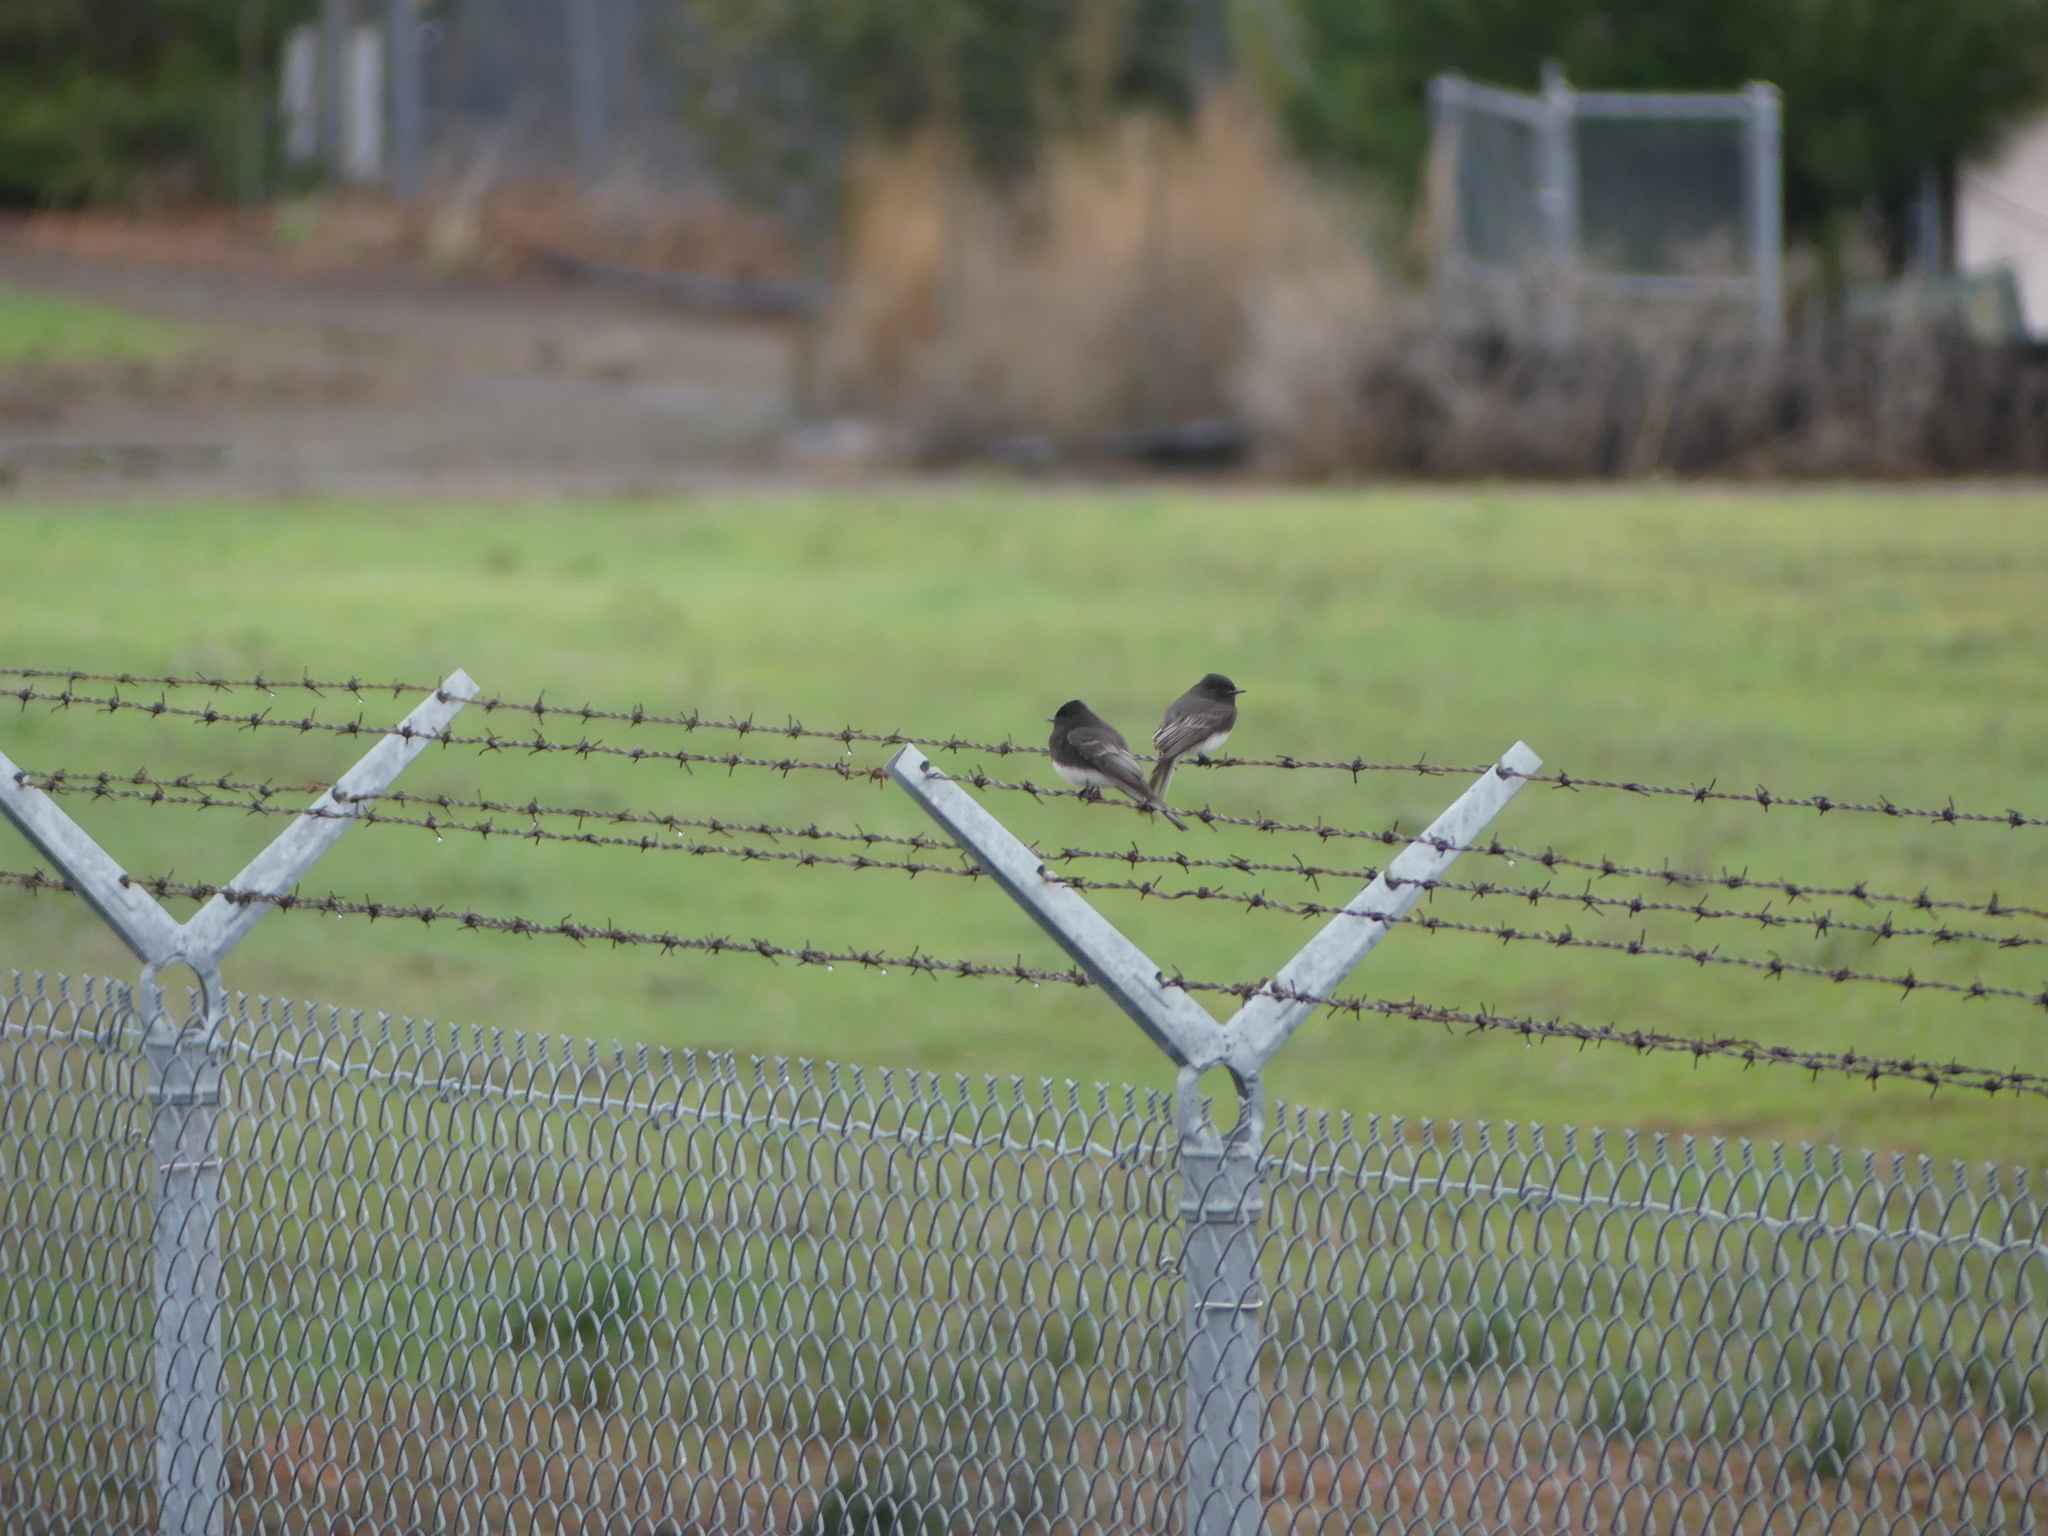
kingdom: Animalia
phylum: Chordata
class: Aves
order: Passeriformes
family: Tyrannidae
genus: Sayornis
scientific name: Sayornis nigricans
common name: Black phoebe
